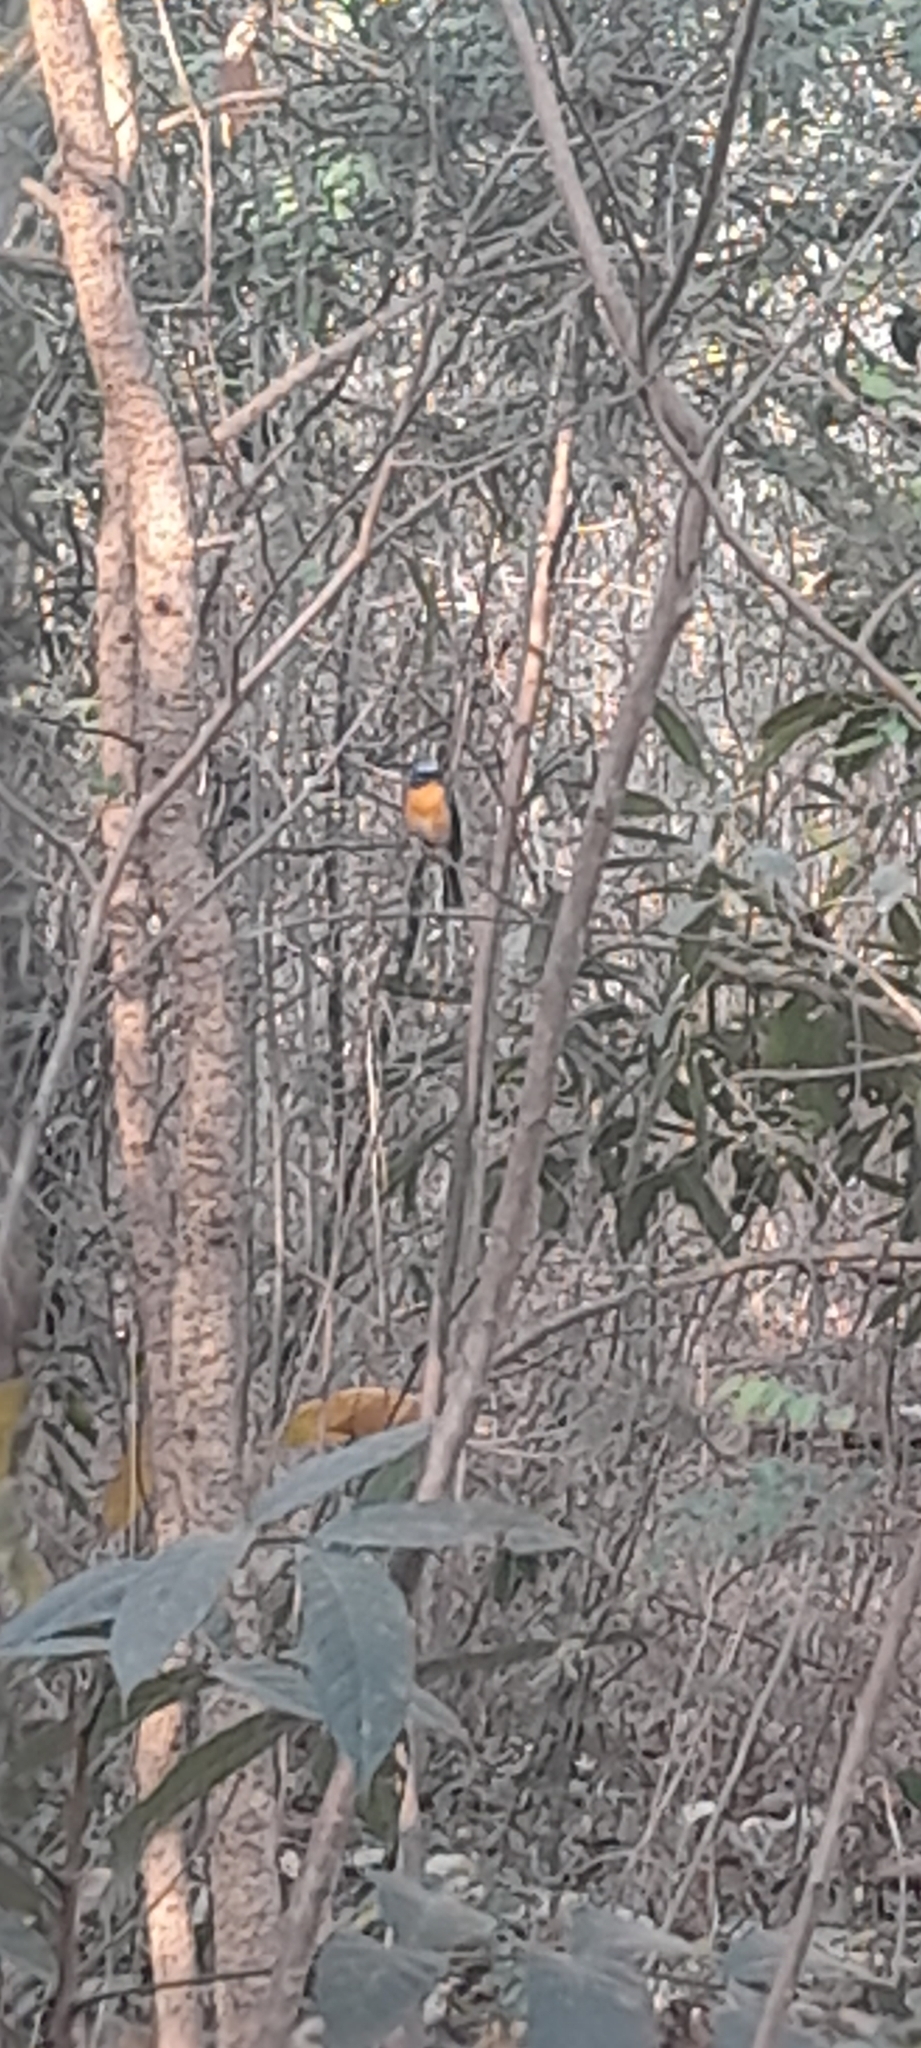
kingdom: Animalia
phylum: Chordata
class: Aves
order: Passeriformes
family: Muscicapidae
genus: Cyornis
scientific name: Cyornis tickelliae
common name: Tickell's blue flycatcher
